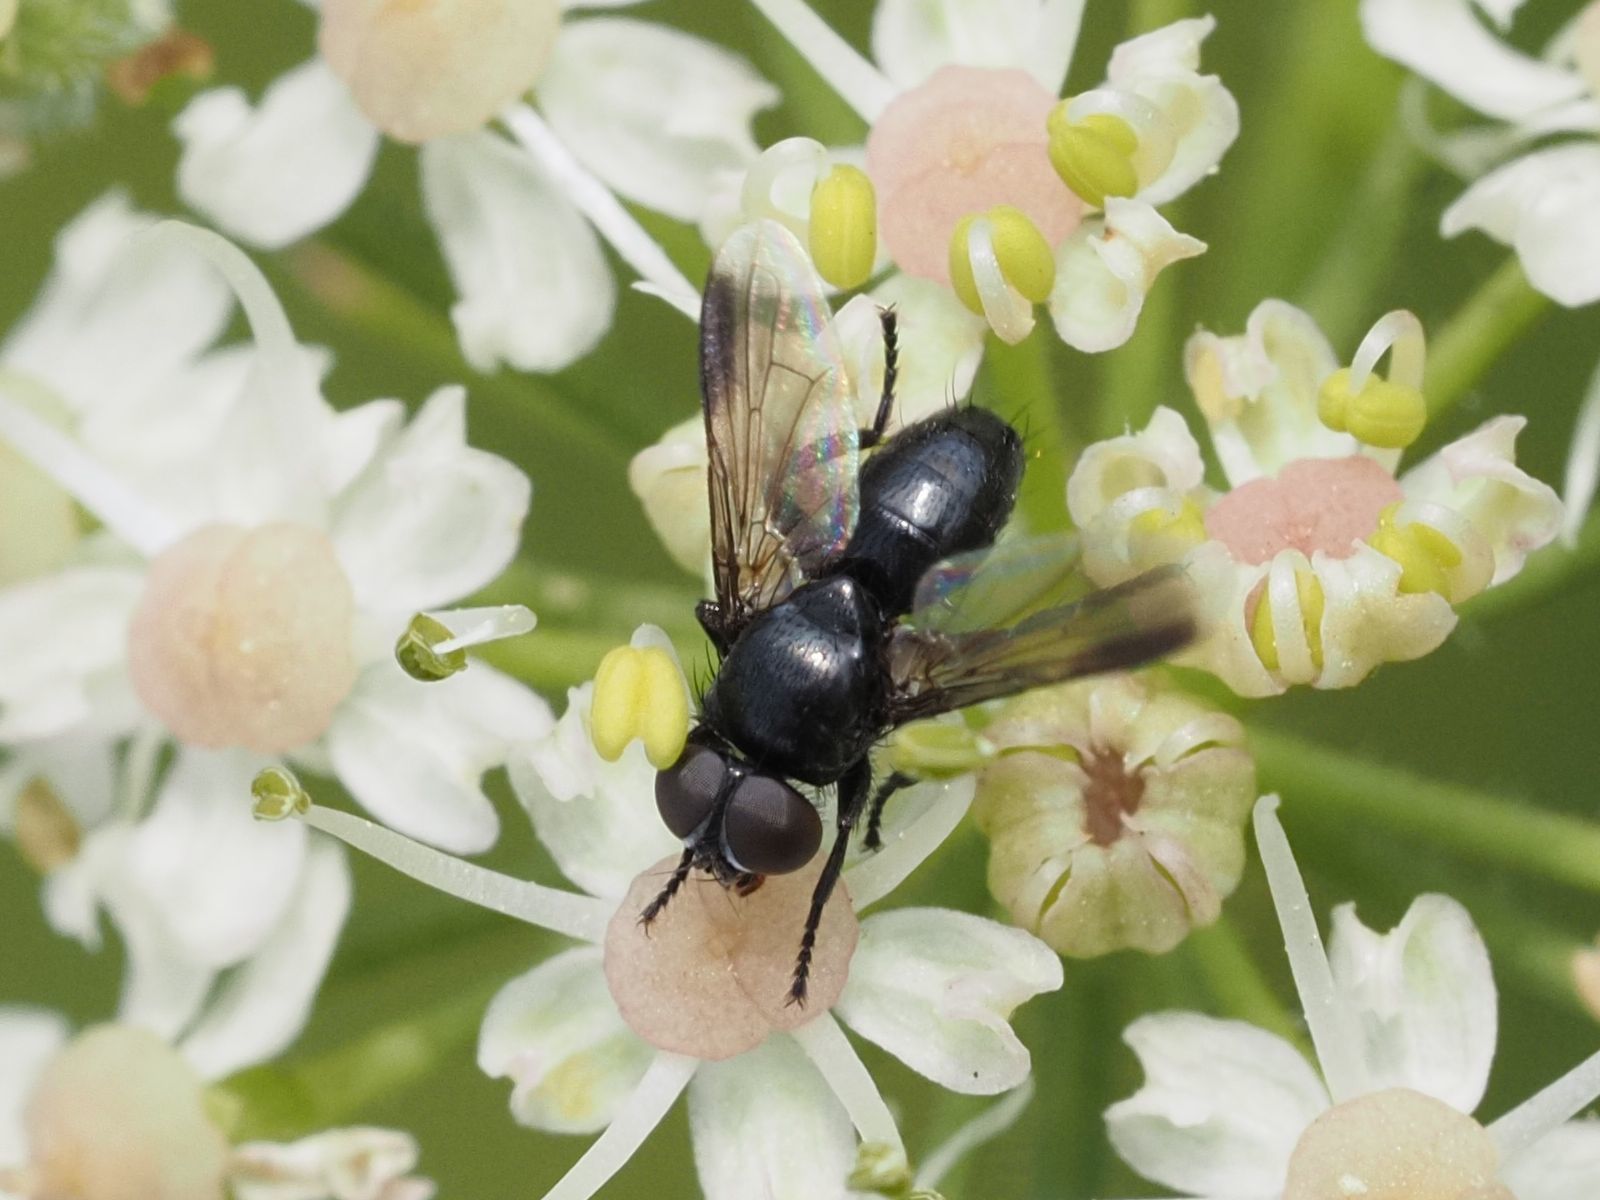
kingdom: Animalia
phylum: Arthropoda
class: Insecta
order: Diptera
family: Tachinidae
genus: Catharosia
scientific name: Catharosia pygmaea
